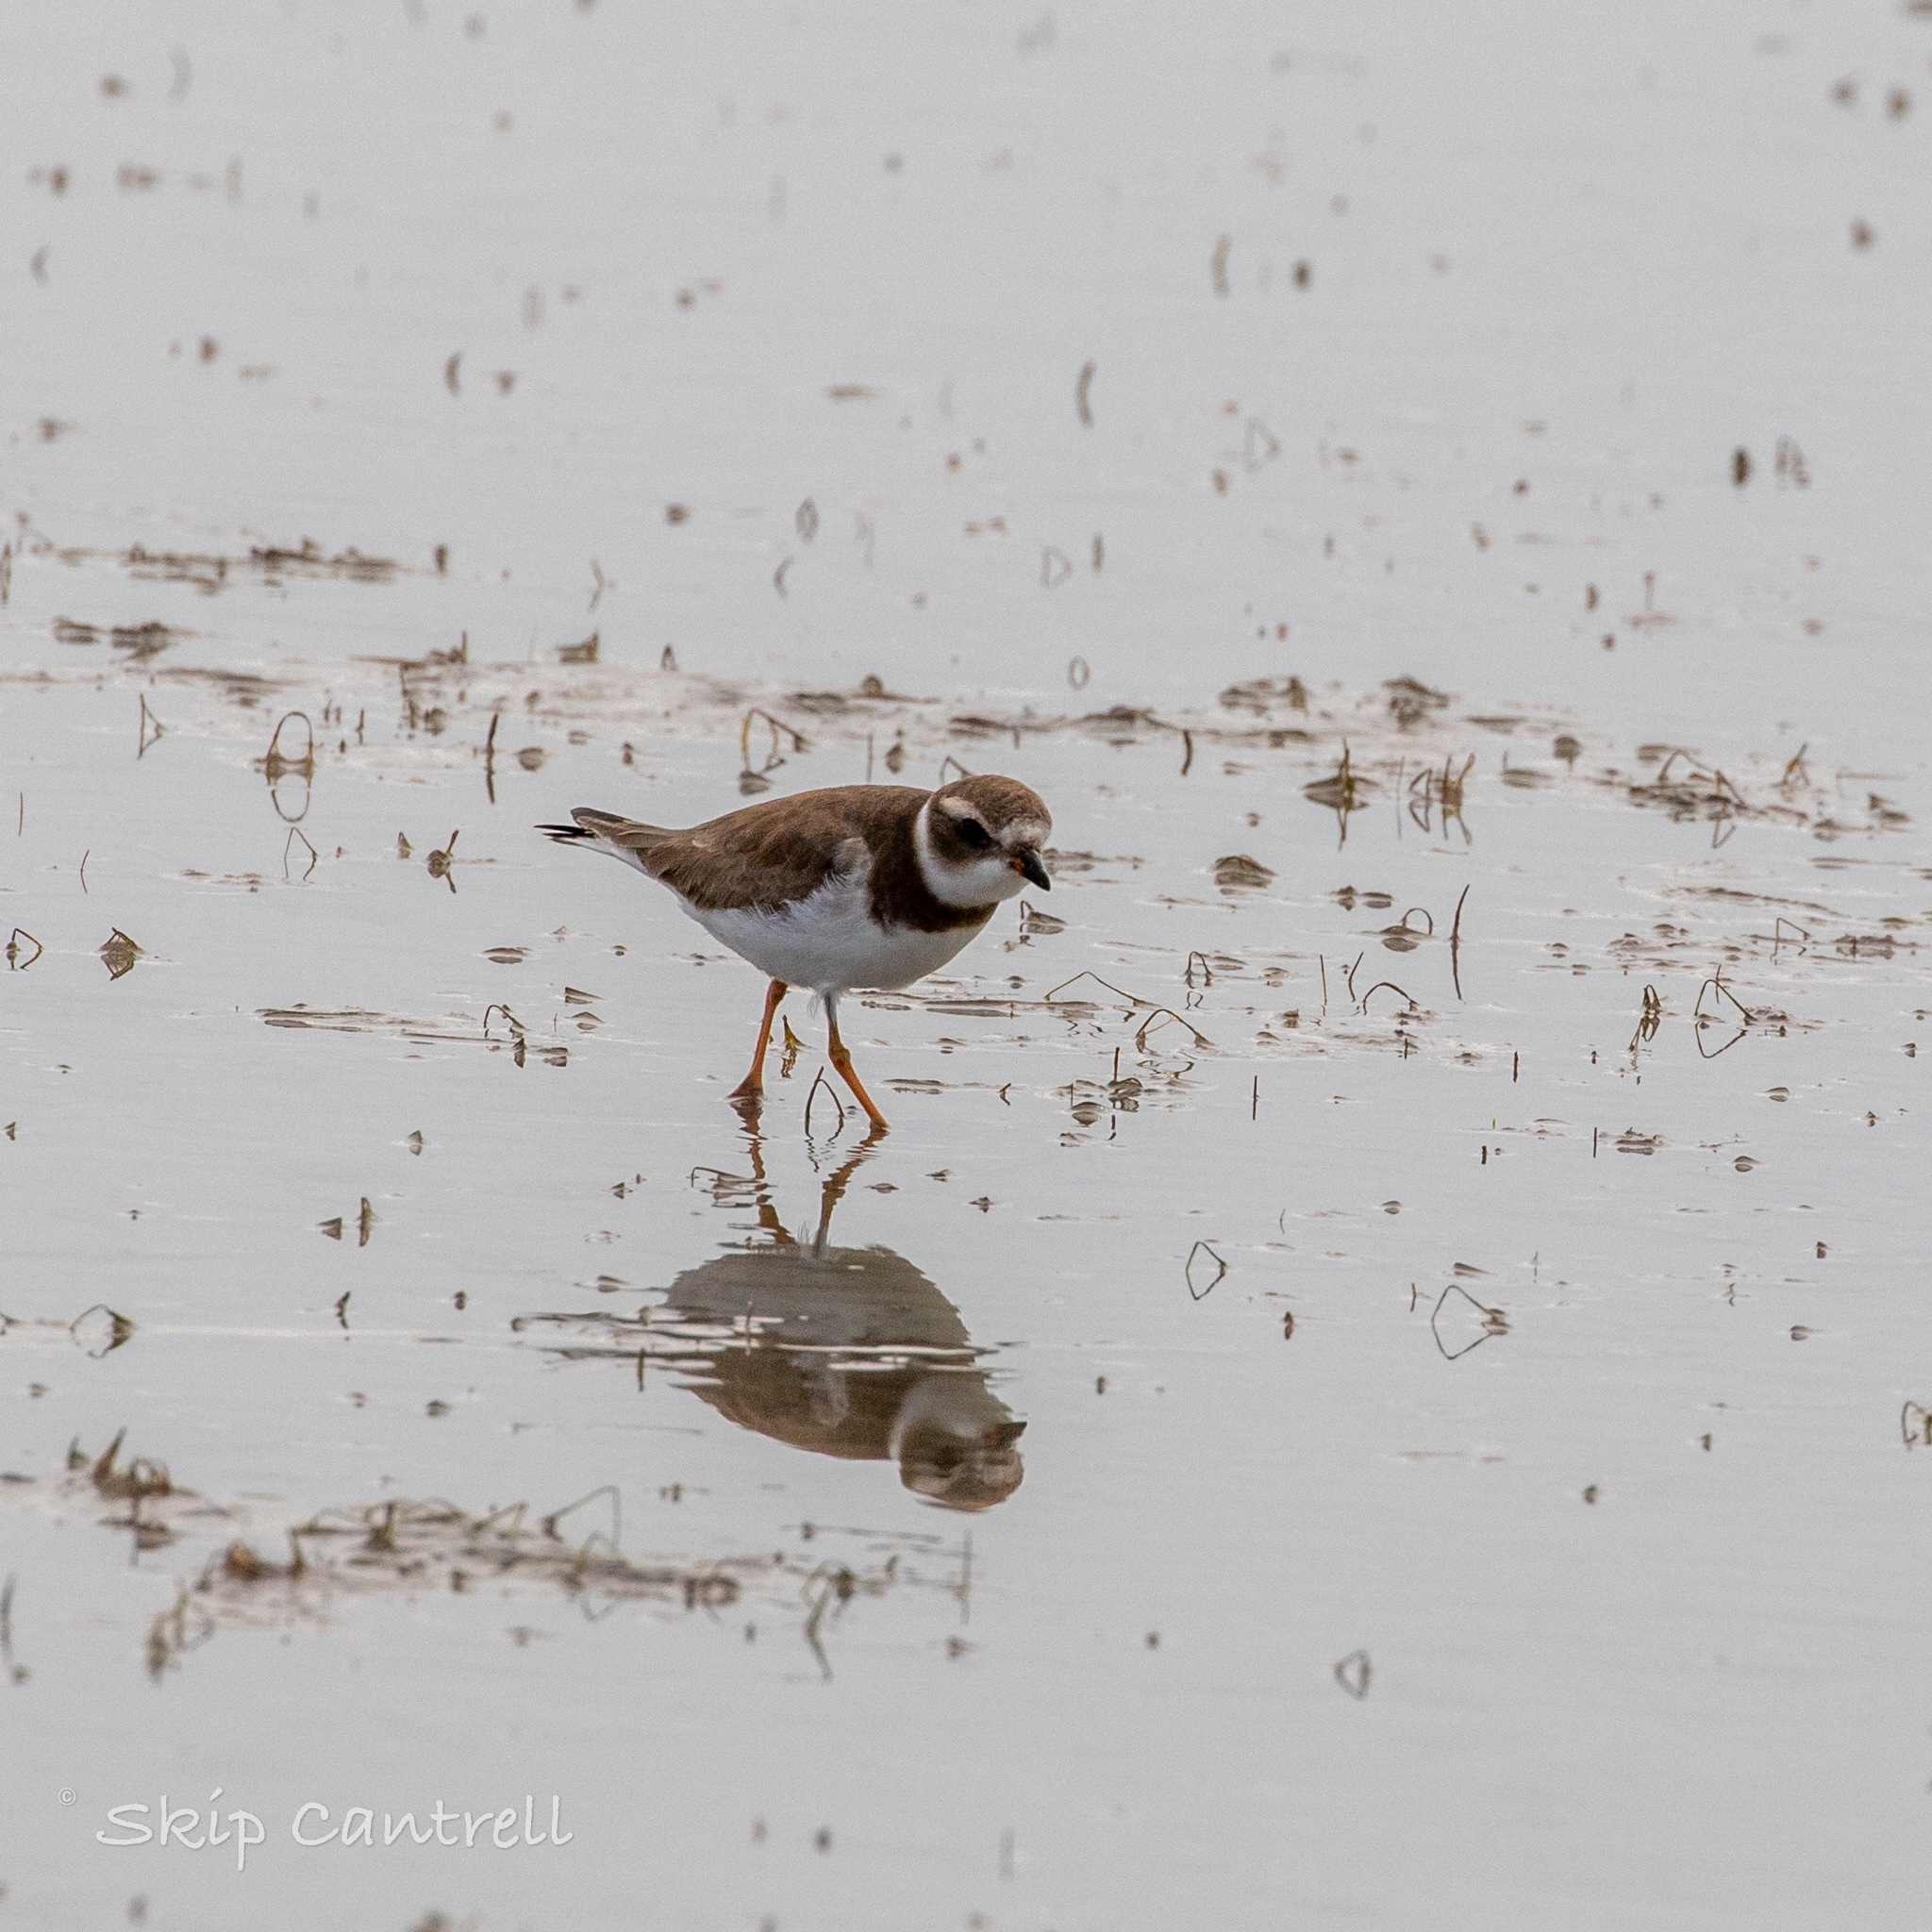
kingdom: Animalia
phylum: Chordata
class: Aves
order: Charadriiformes
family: Charadriidae
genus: Charadrius
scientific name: Charadrius semipalmatus
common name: Semipalmated plover
